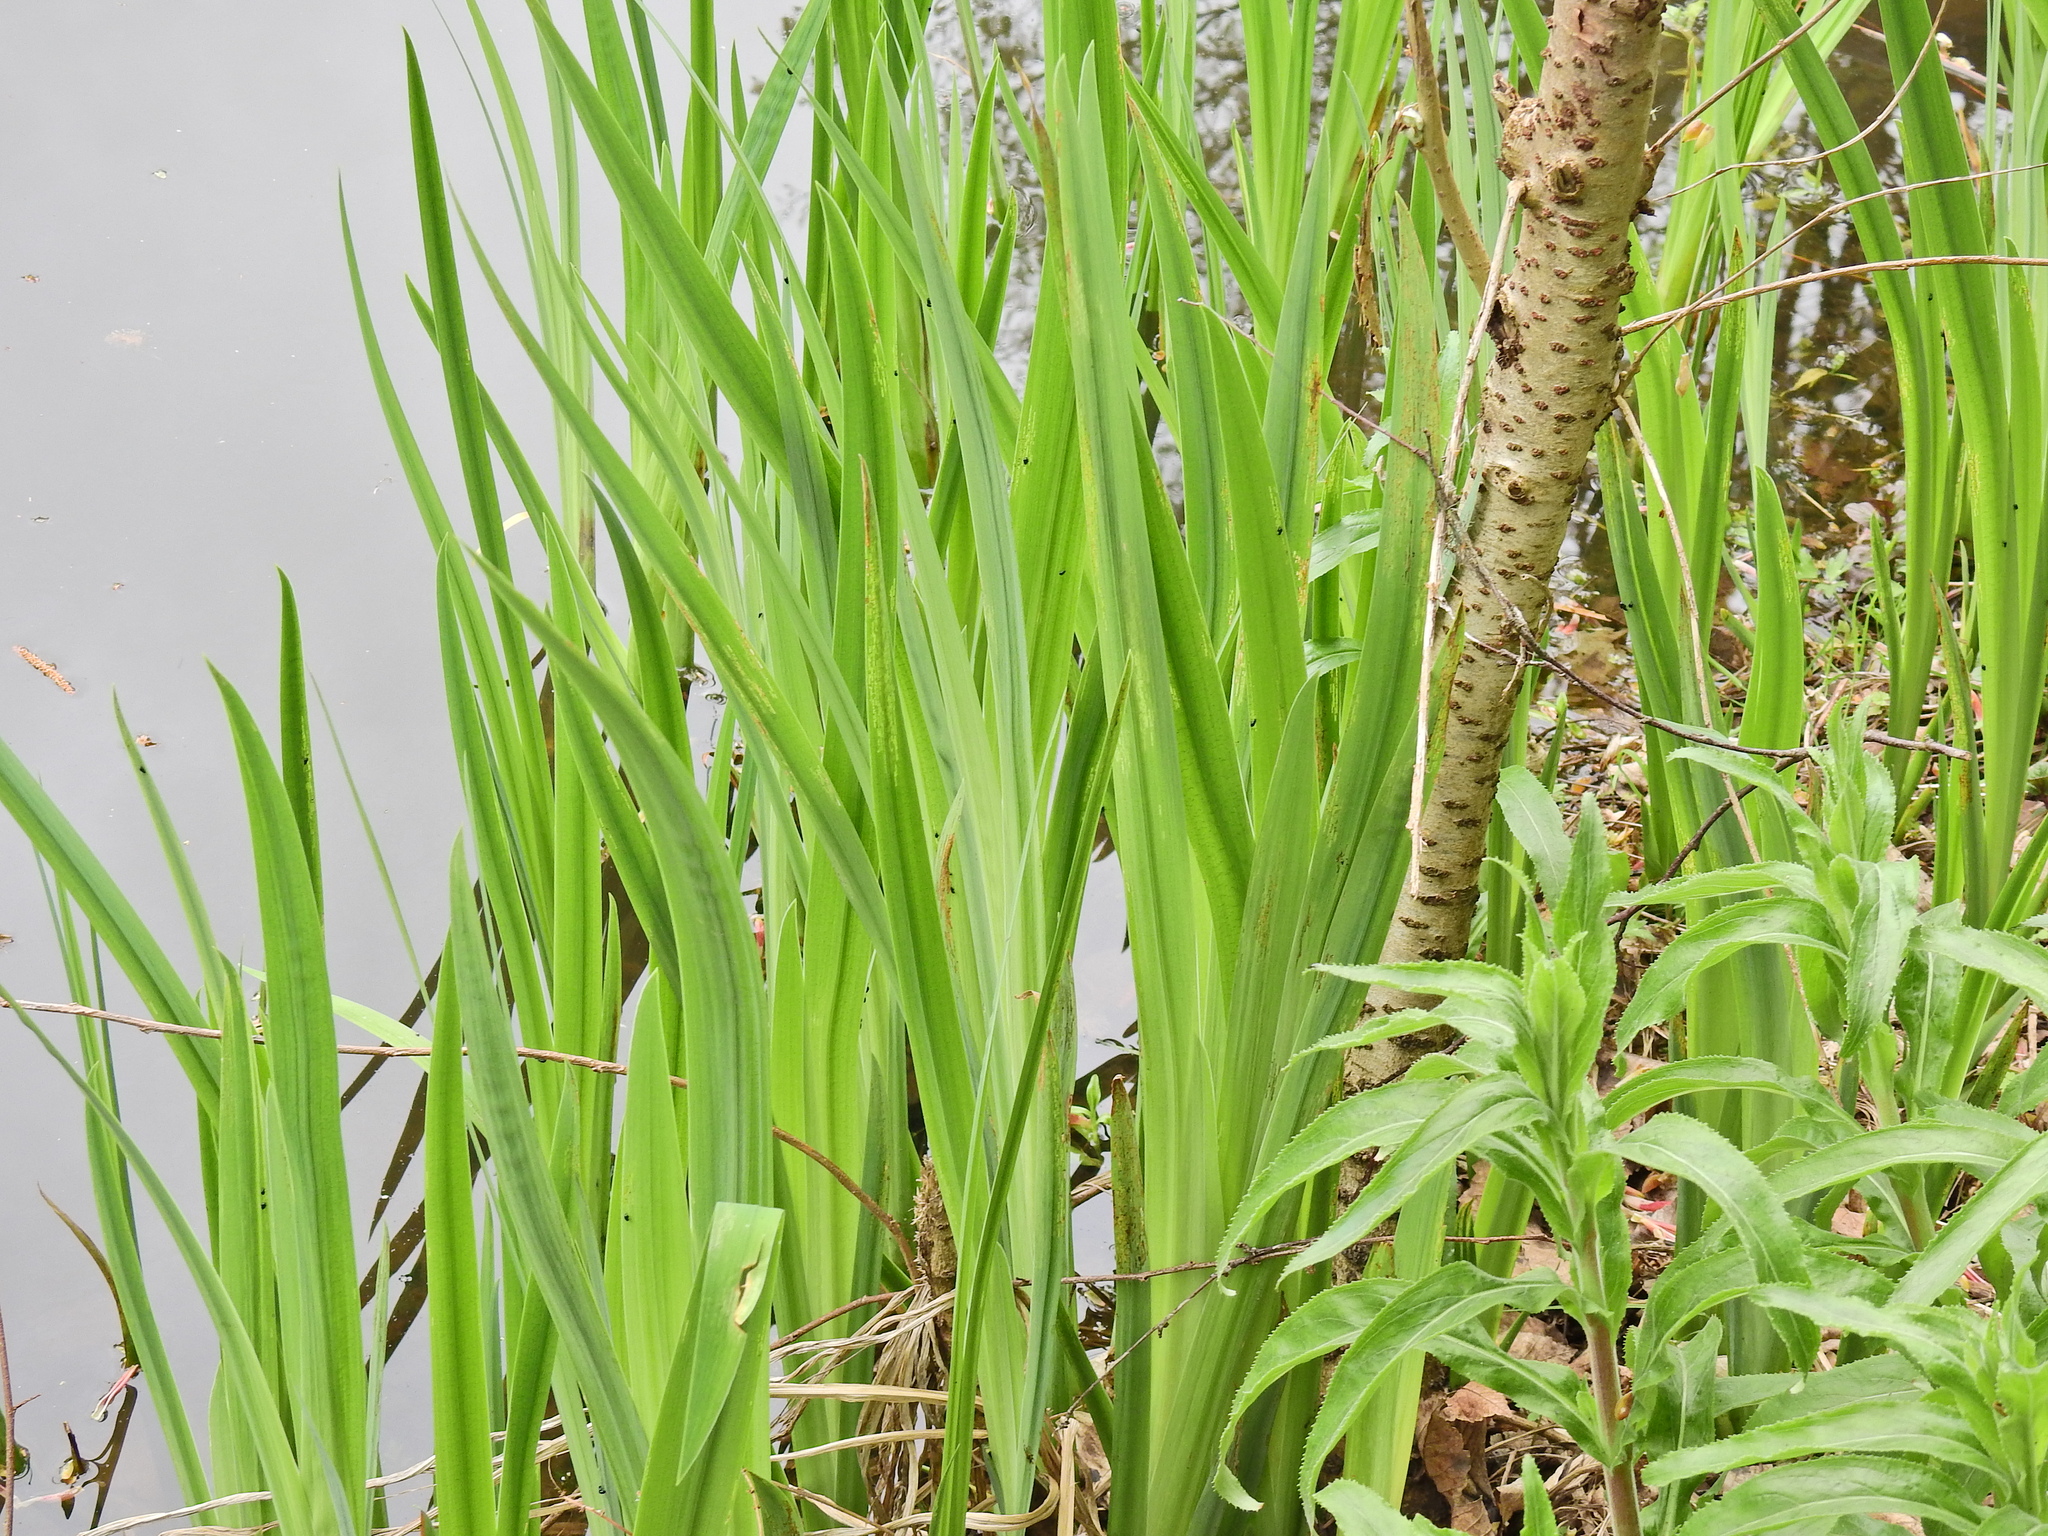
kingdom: Plantae
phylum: Tracheophyta
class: Liliopsida
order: Asparagales
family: Iridaceae
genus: Iris
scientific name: Iris pseudacorus
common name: Yellow flag
